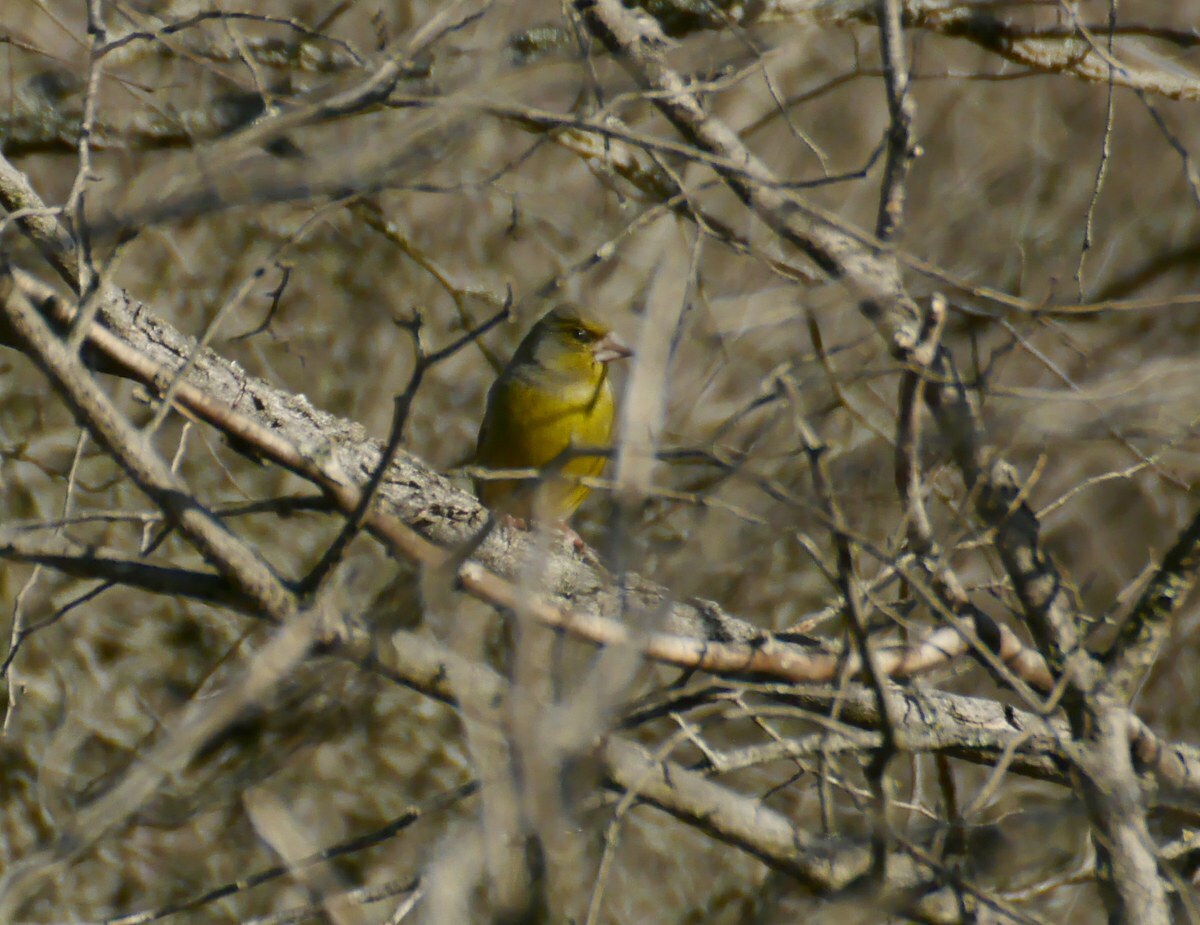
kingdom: Plantae
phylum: Tracheophyta
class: Liliopsida
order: Poales
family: Poaceae
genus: Chloris
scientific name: Chloris chloris
